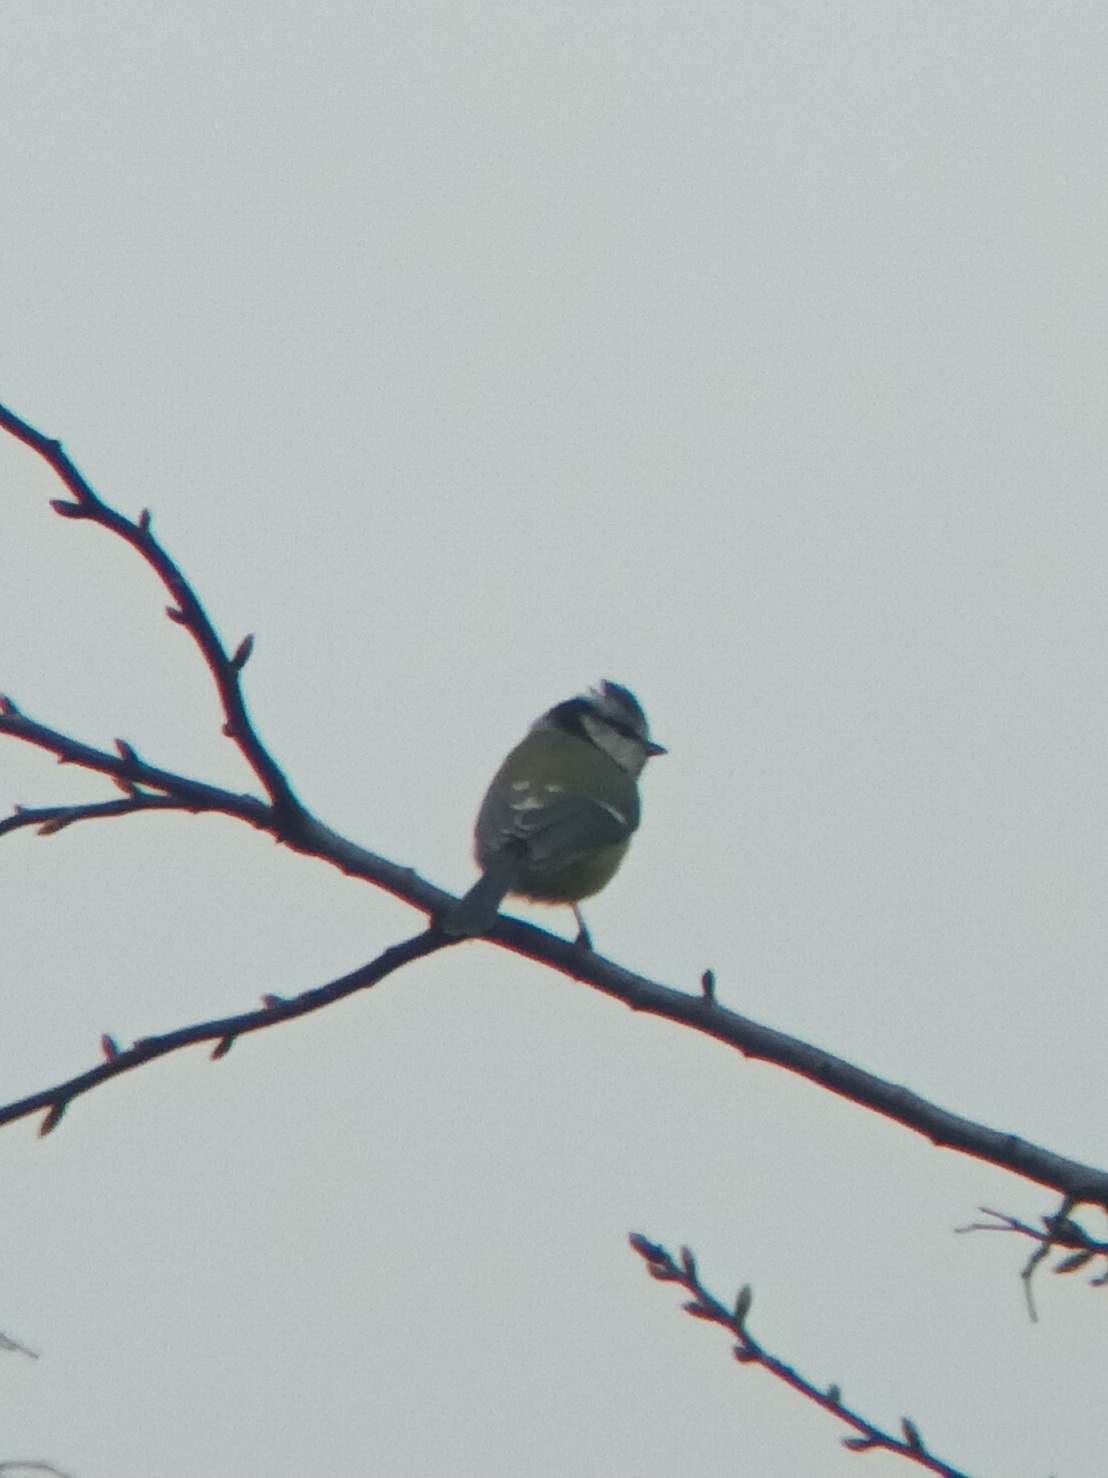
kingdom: Animalia
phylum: Chordata
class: Aves
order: Passeriformes
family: Paridae
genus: Cyanistes
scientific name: Cyanistes caeruleus
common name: Eurasian blue tit
